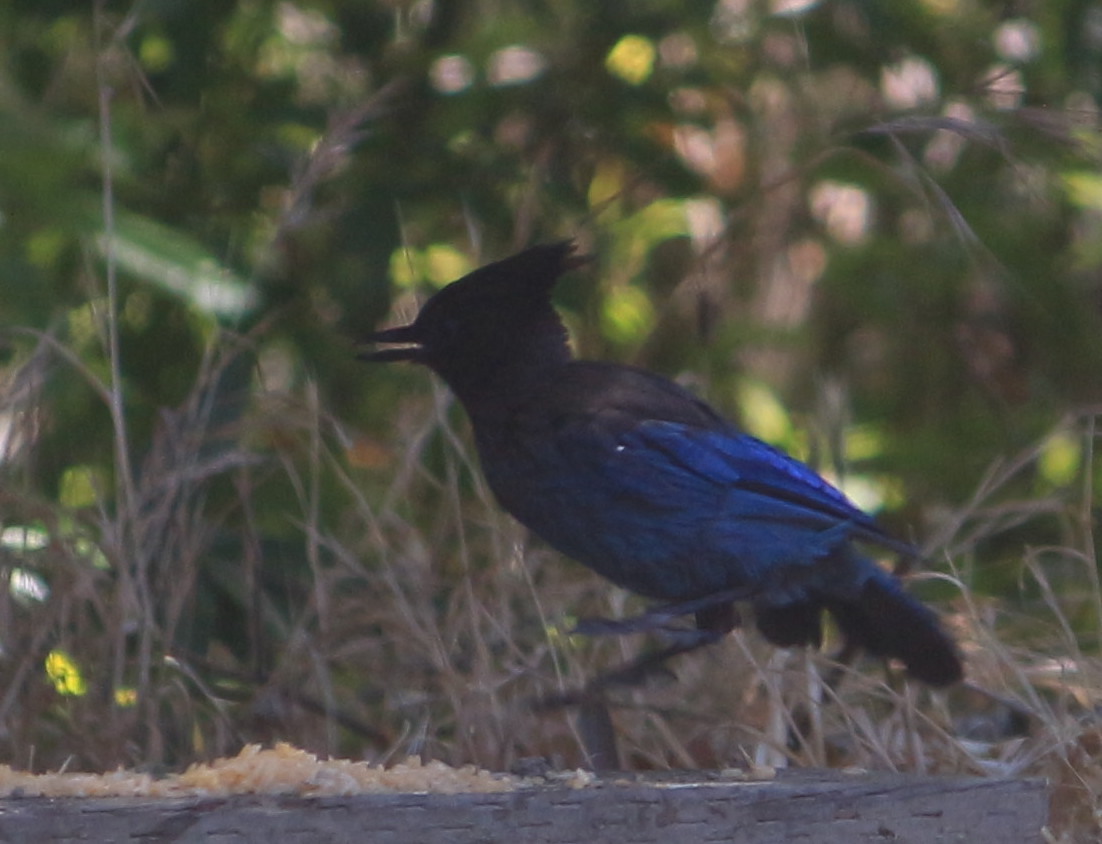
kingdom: Animalia
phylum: Chordata
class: Aves
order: Passeriformes
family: Corvidae
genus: Cyanocitta
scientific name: Cyanocitta stelleri
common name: Steller's jay
